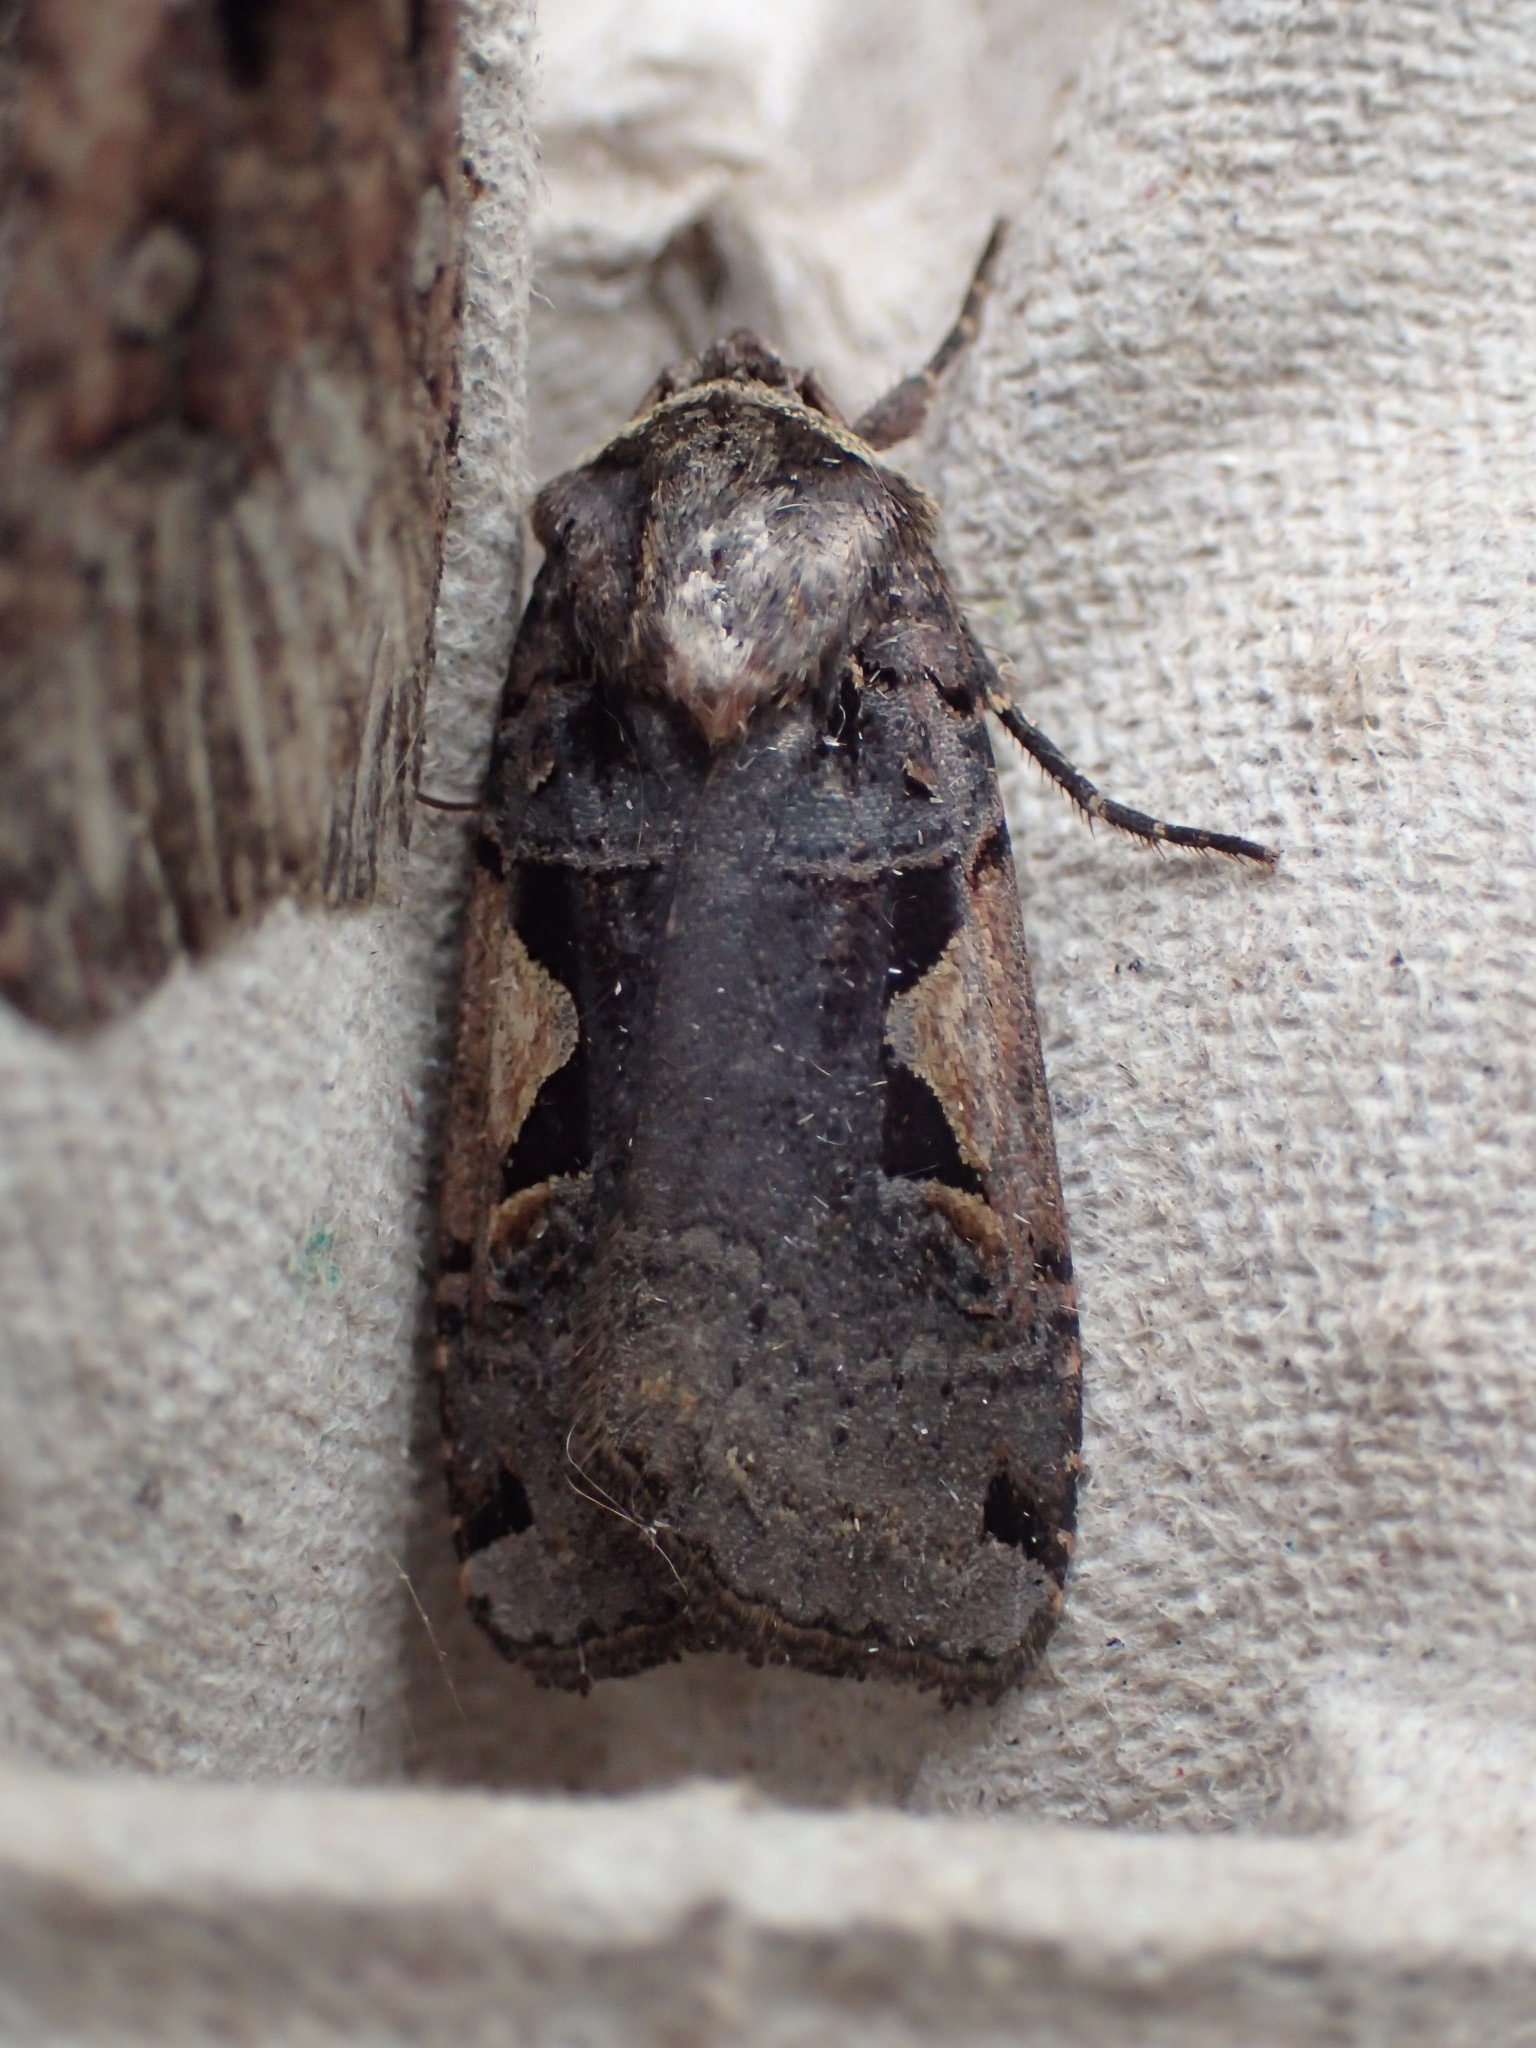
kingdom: Animalia
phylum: Arthropoda
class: Insecta
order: Lepidoptera
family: Noctuidae
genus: Xestia
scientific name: Xestia
